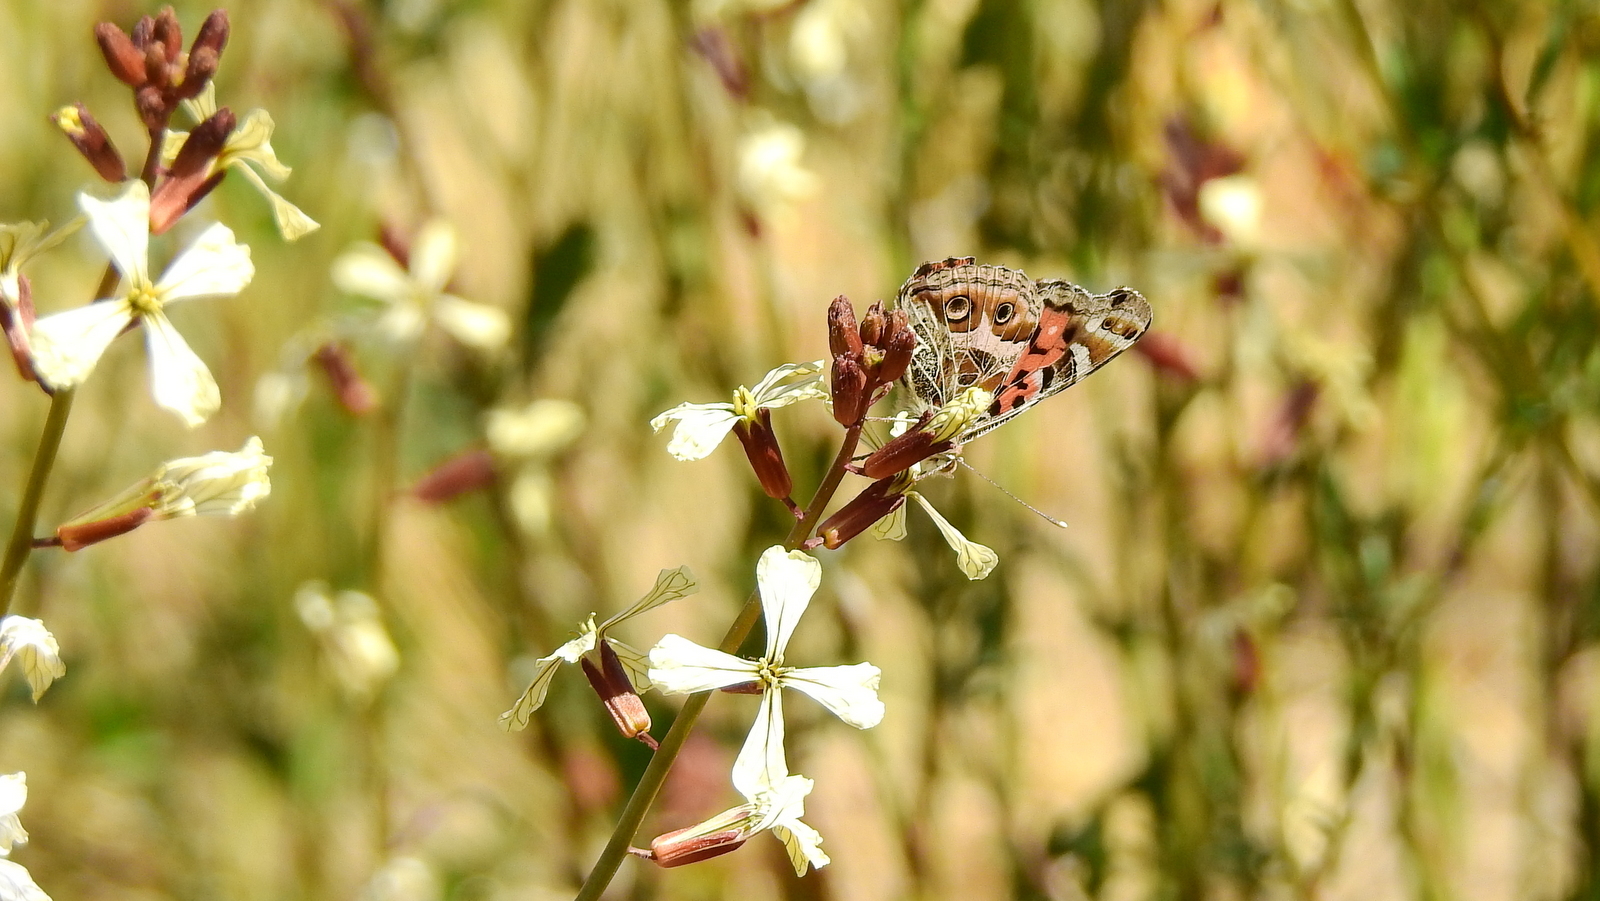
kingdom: Animalia
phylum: Arthropoda
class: Insecta
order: Lepidoptera
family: Nymphalidae
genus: Vanessa
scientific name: Vanessa braziliensis
